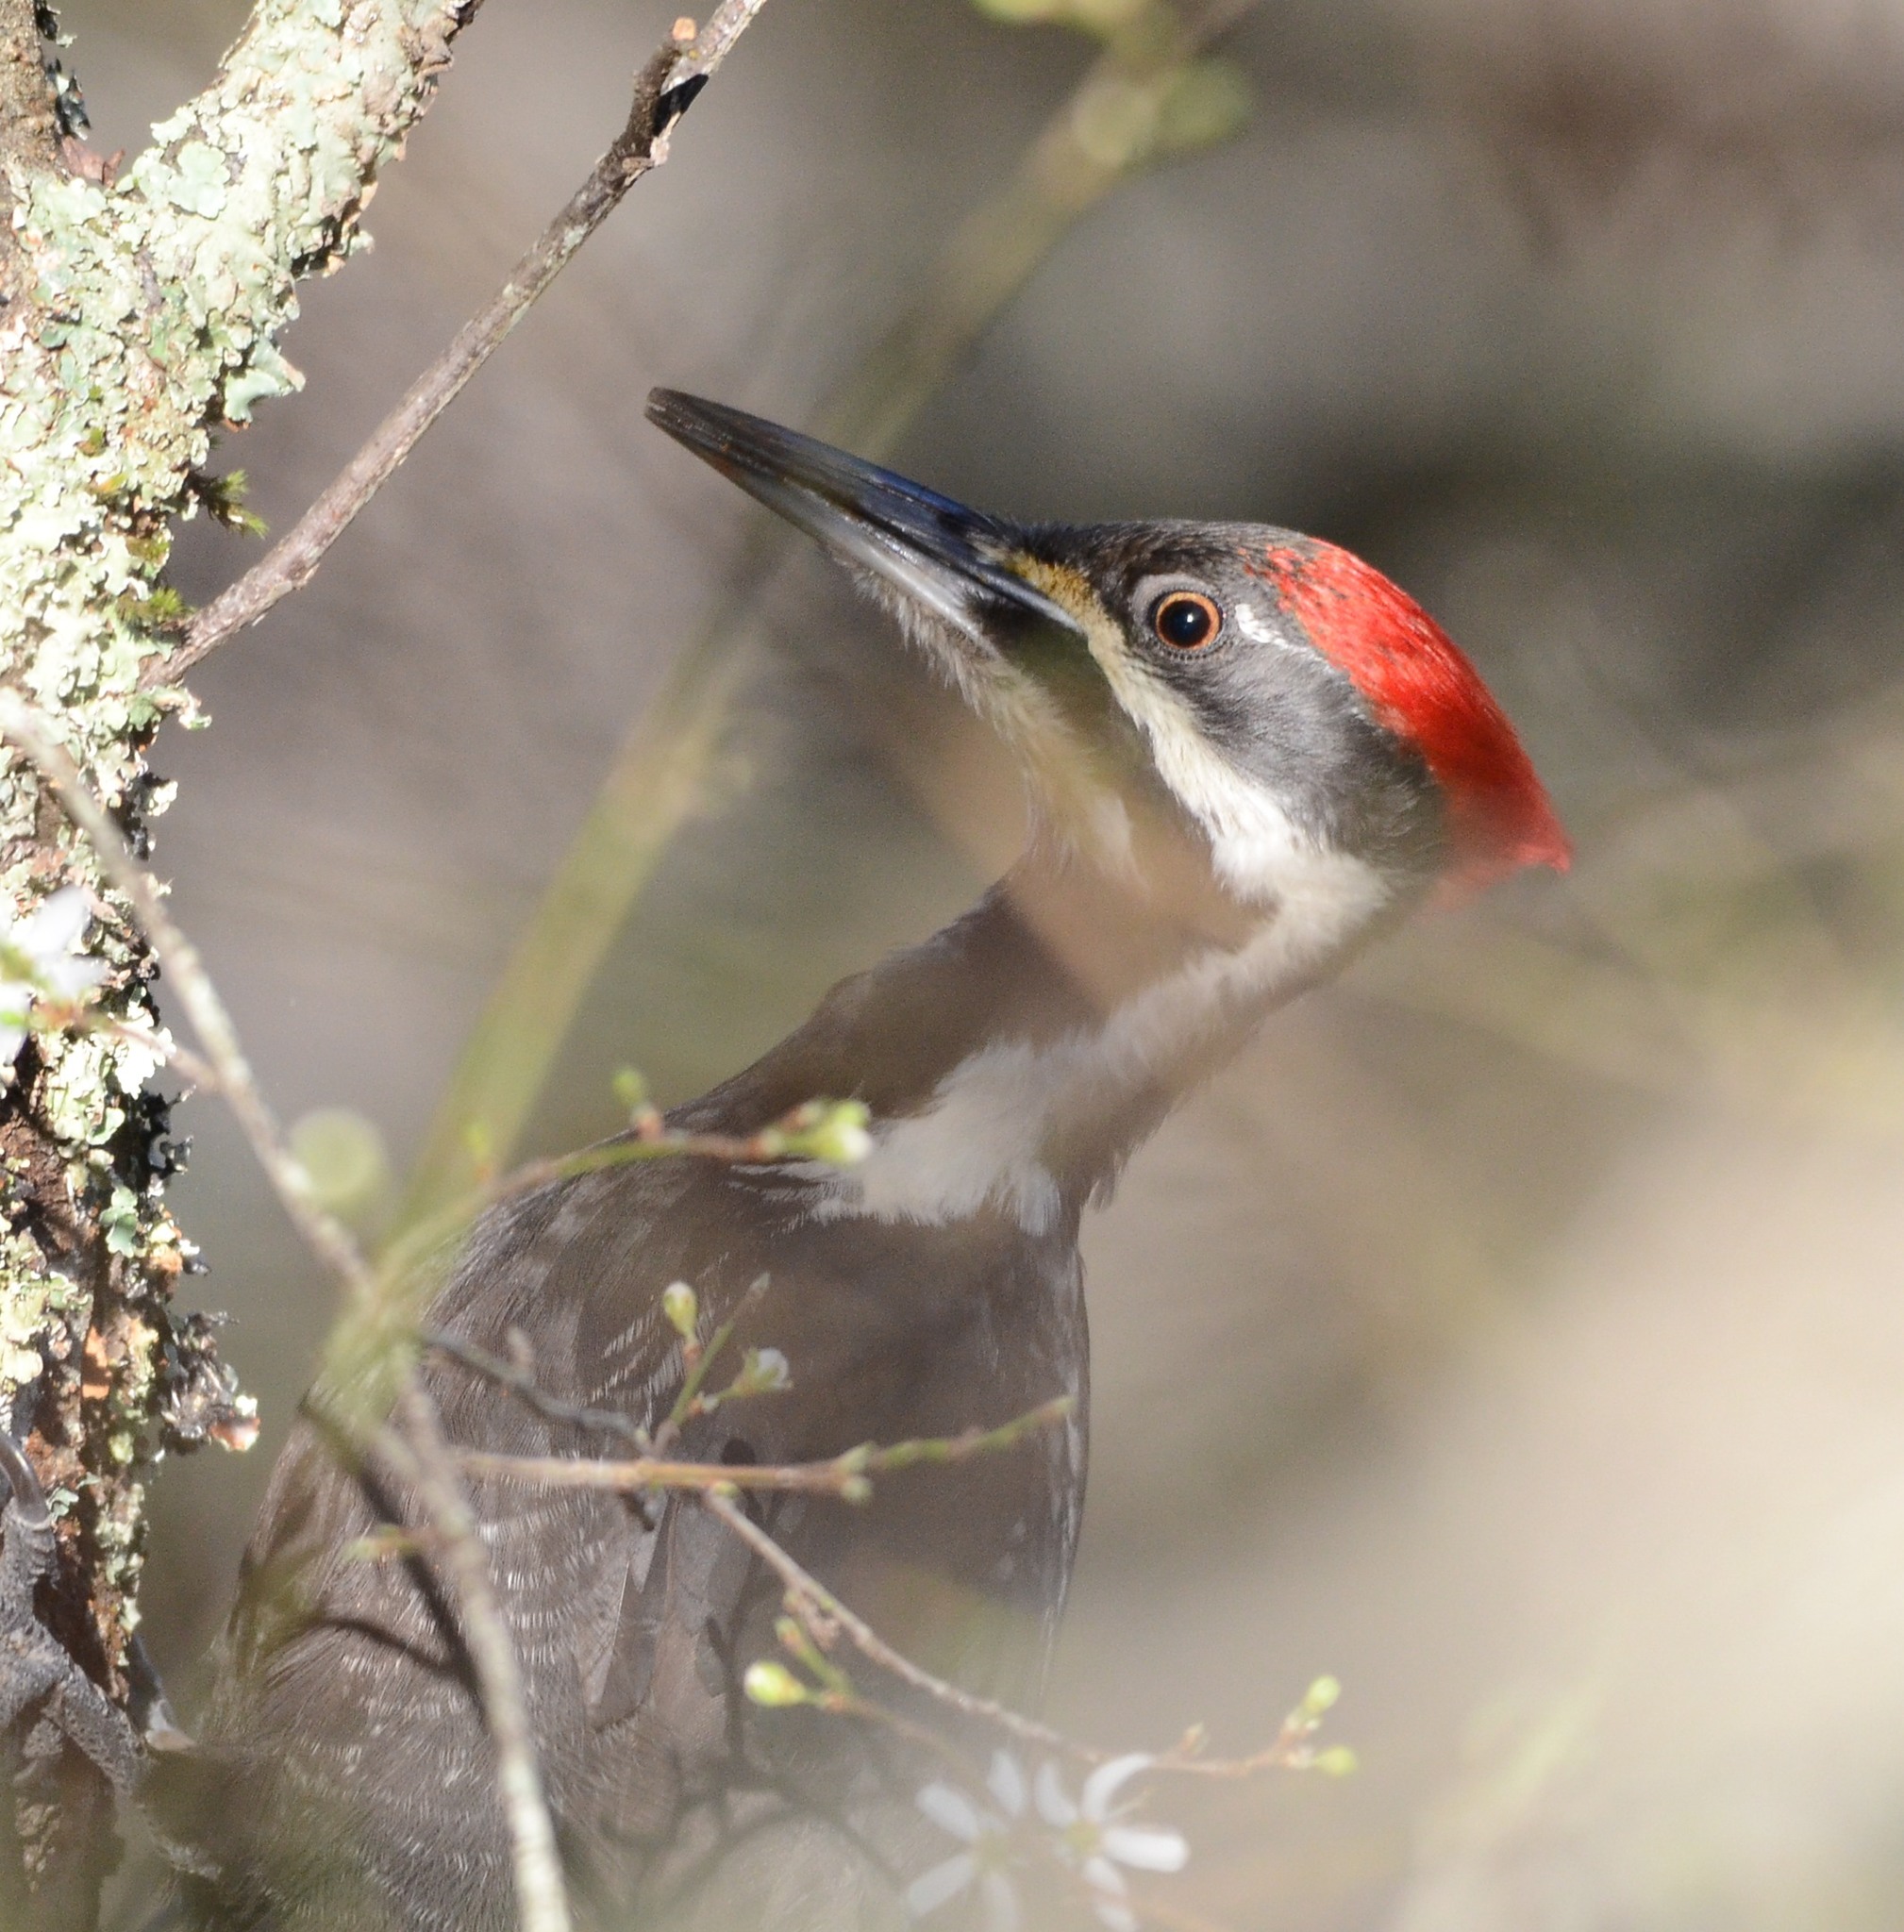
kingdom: Animalia
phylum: Chordata
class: Aves
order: Piciformes
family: Picidae
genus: Dryocopus
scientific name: Dryocopus pileatus
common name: Pileated woodpecker
